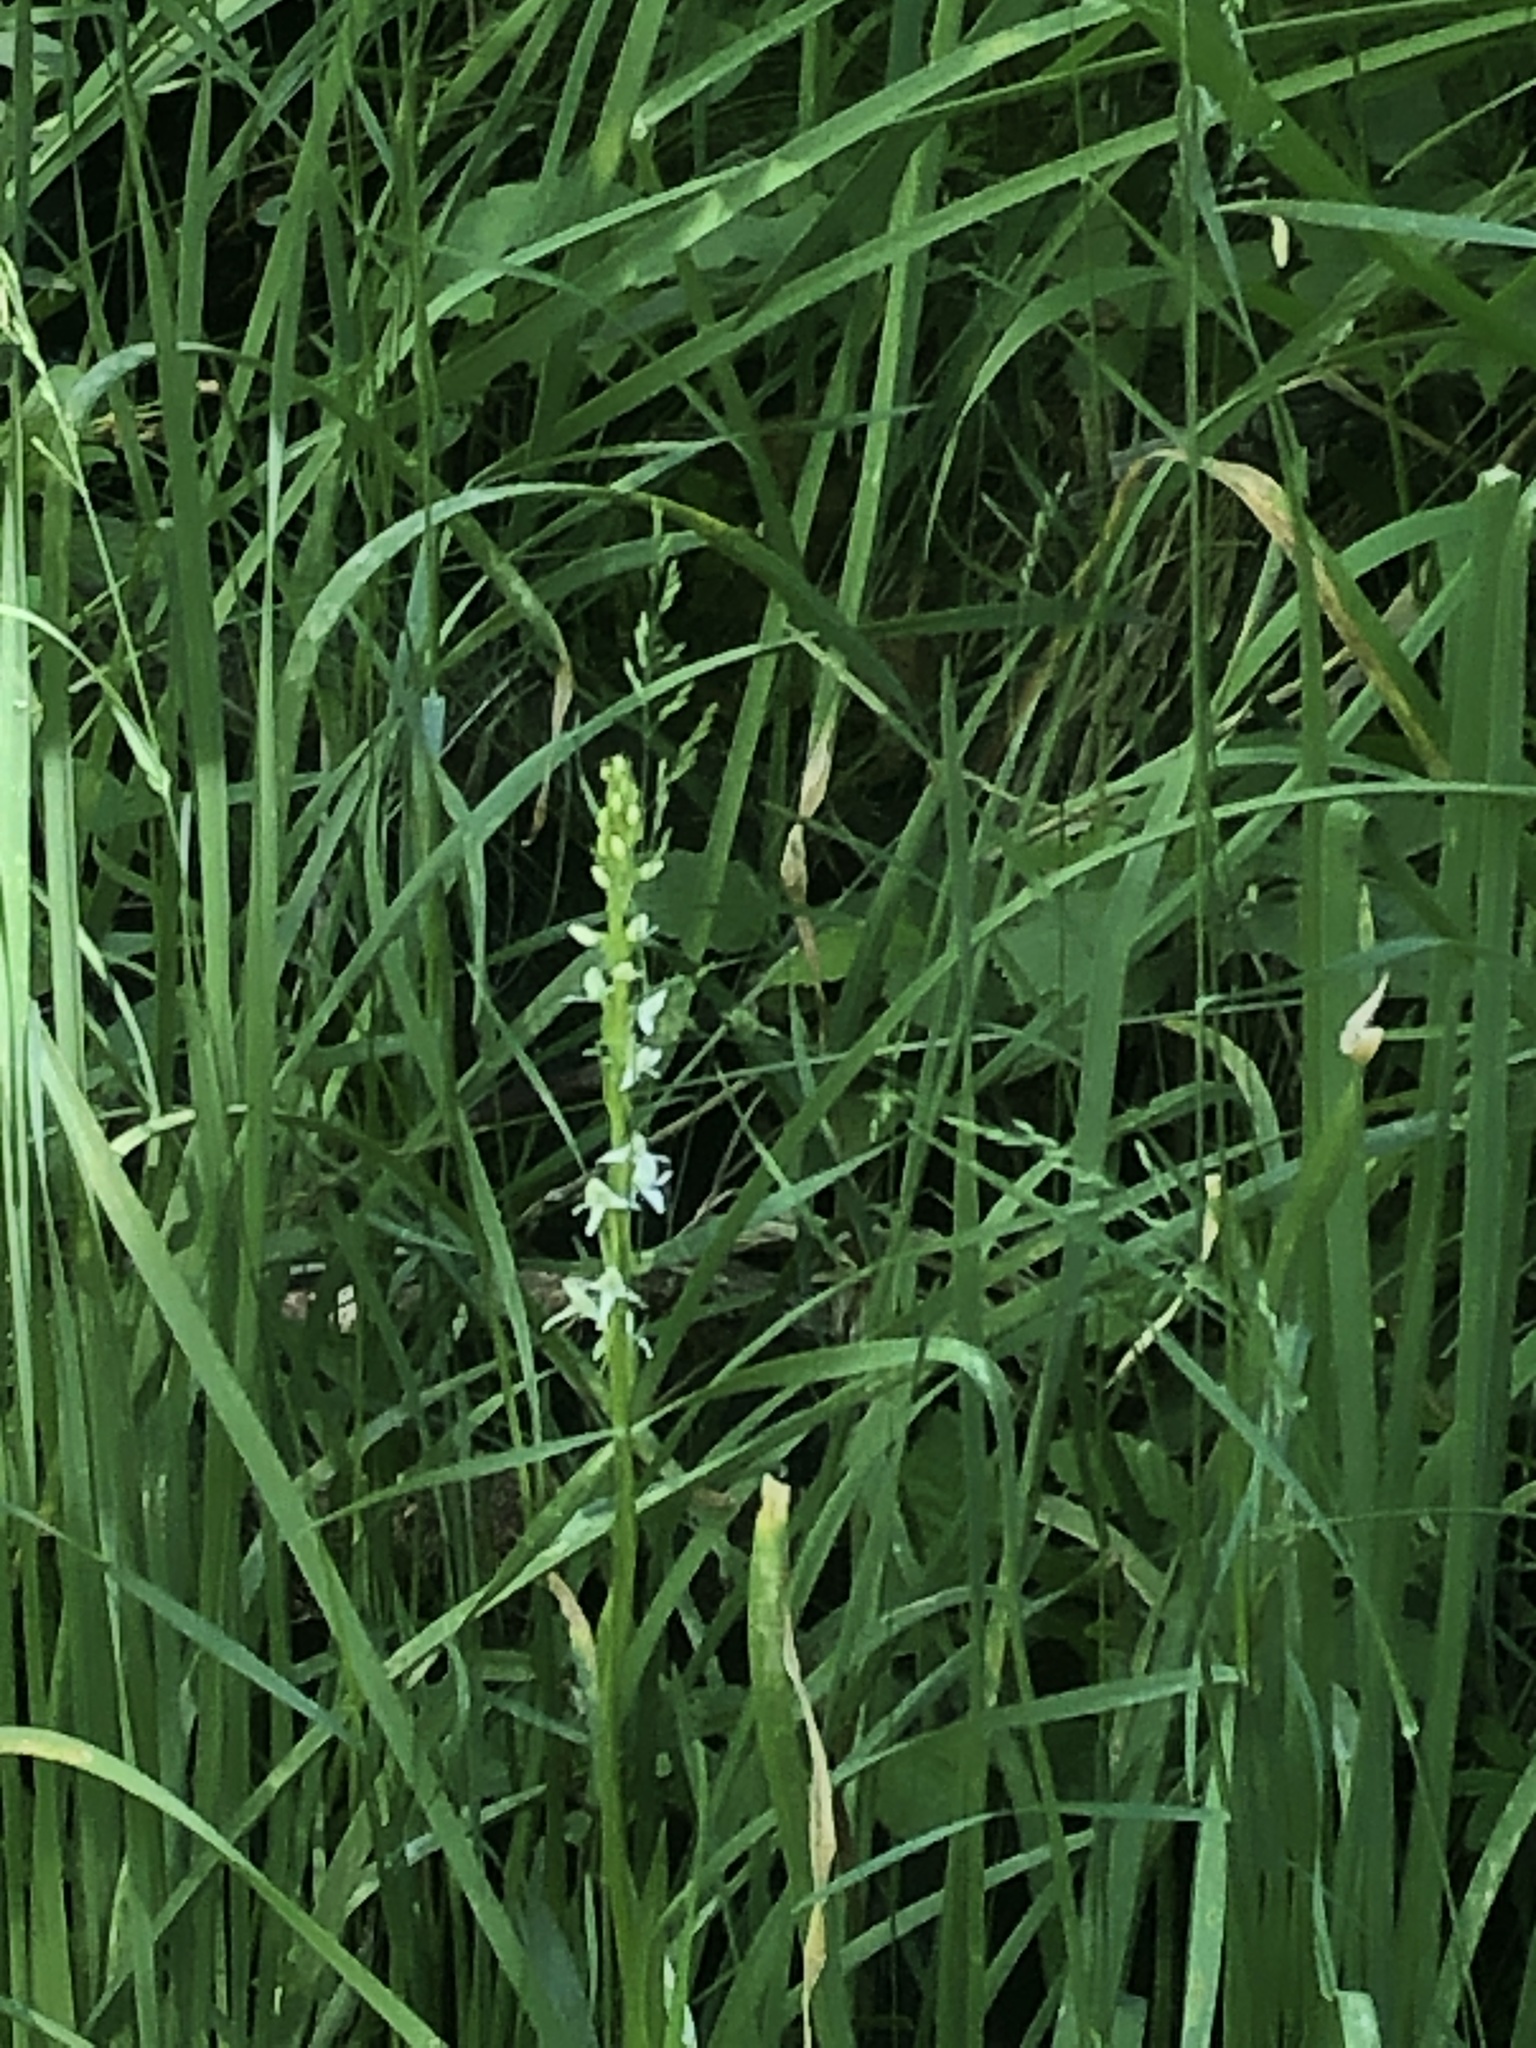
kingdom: Plantae
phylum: Tracheophyta
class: Liliopsida
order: Asparagales
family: Orchidaceae
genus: Platanthera
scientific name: Platanthera dilatata
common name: Bog candles
